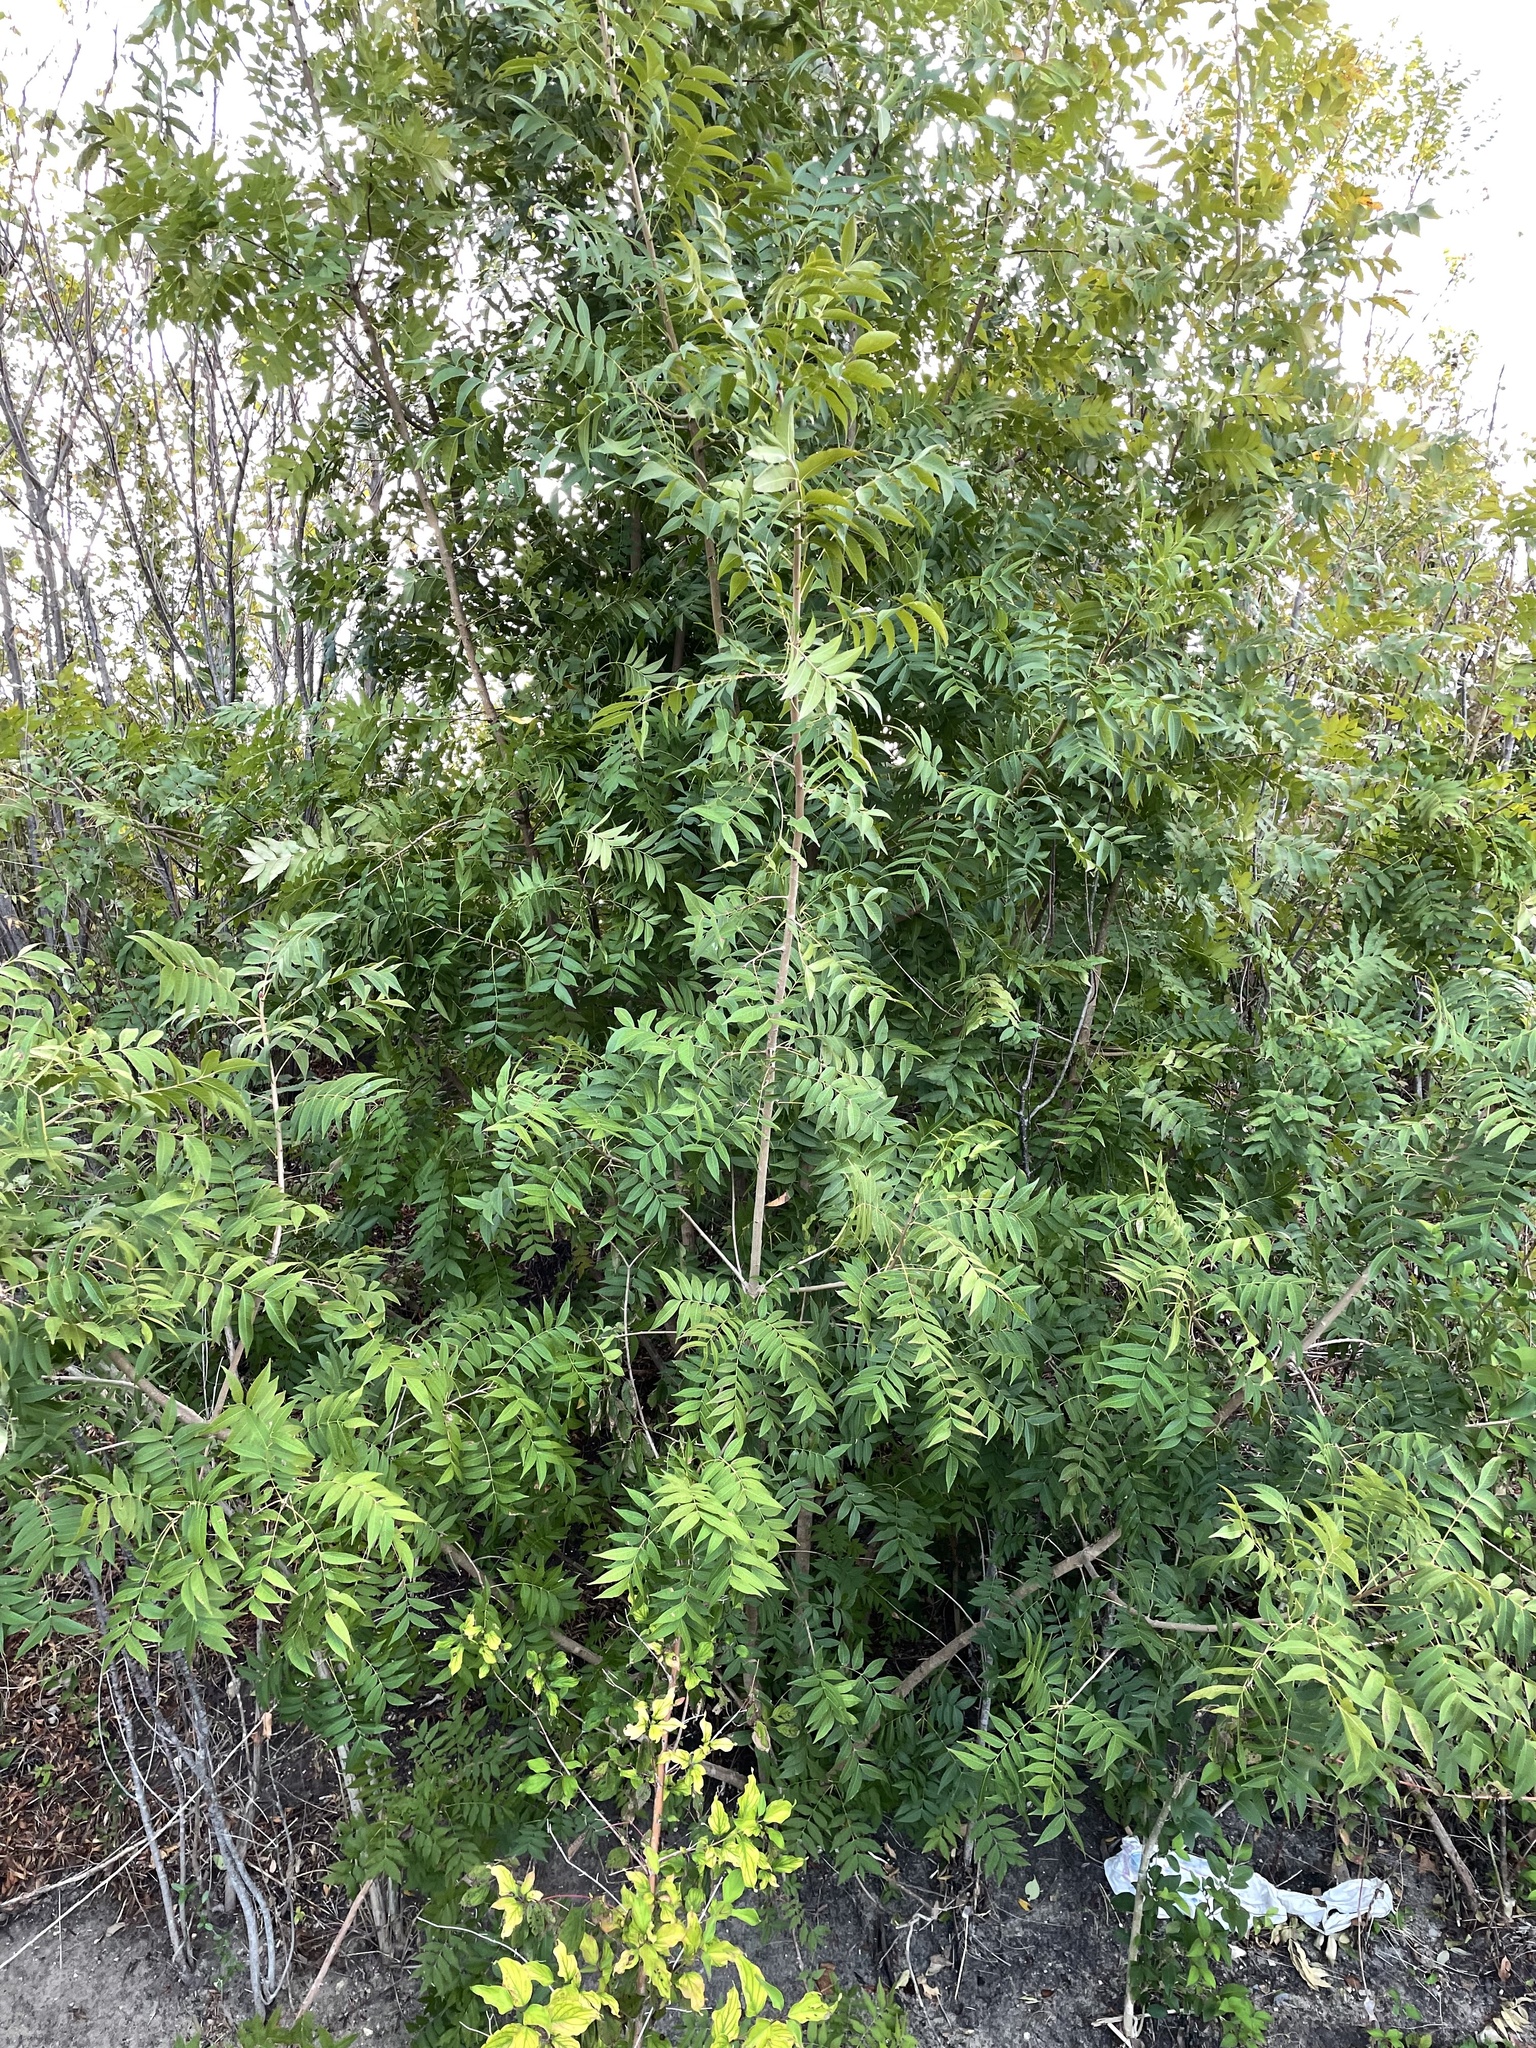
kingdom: Plantae
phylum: Tracheophyta
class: Magnoliopsida
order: Sapindales
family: Anacardiaceae
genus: Pistacia
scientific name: Pistacia chinensis
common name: Chinese pistache
